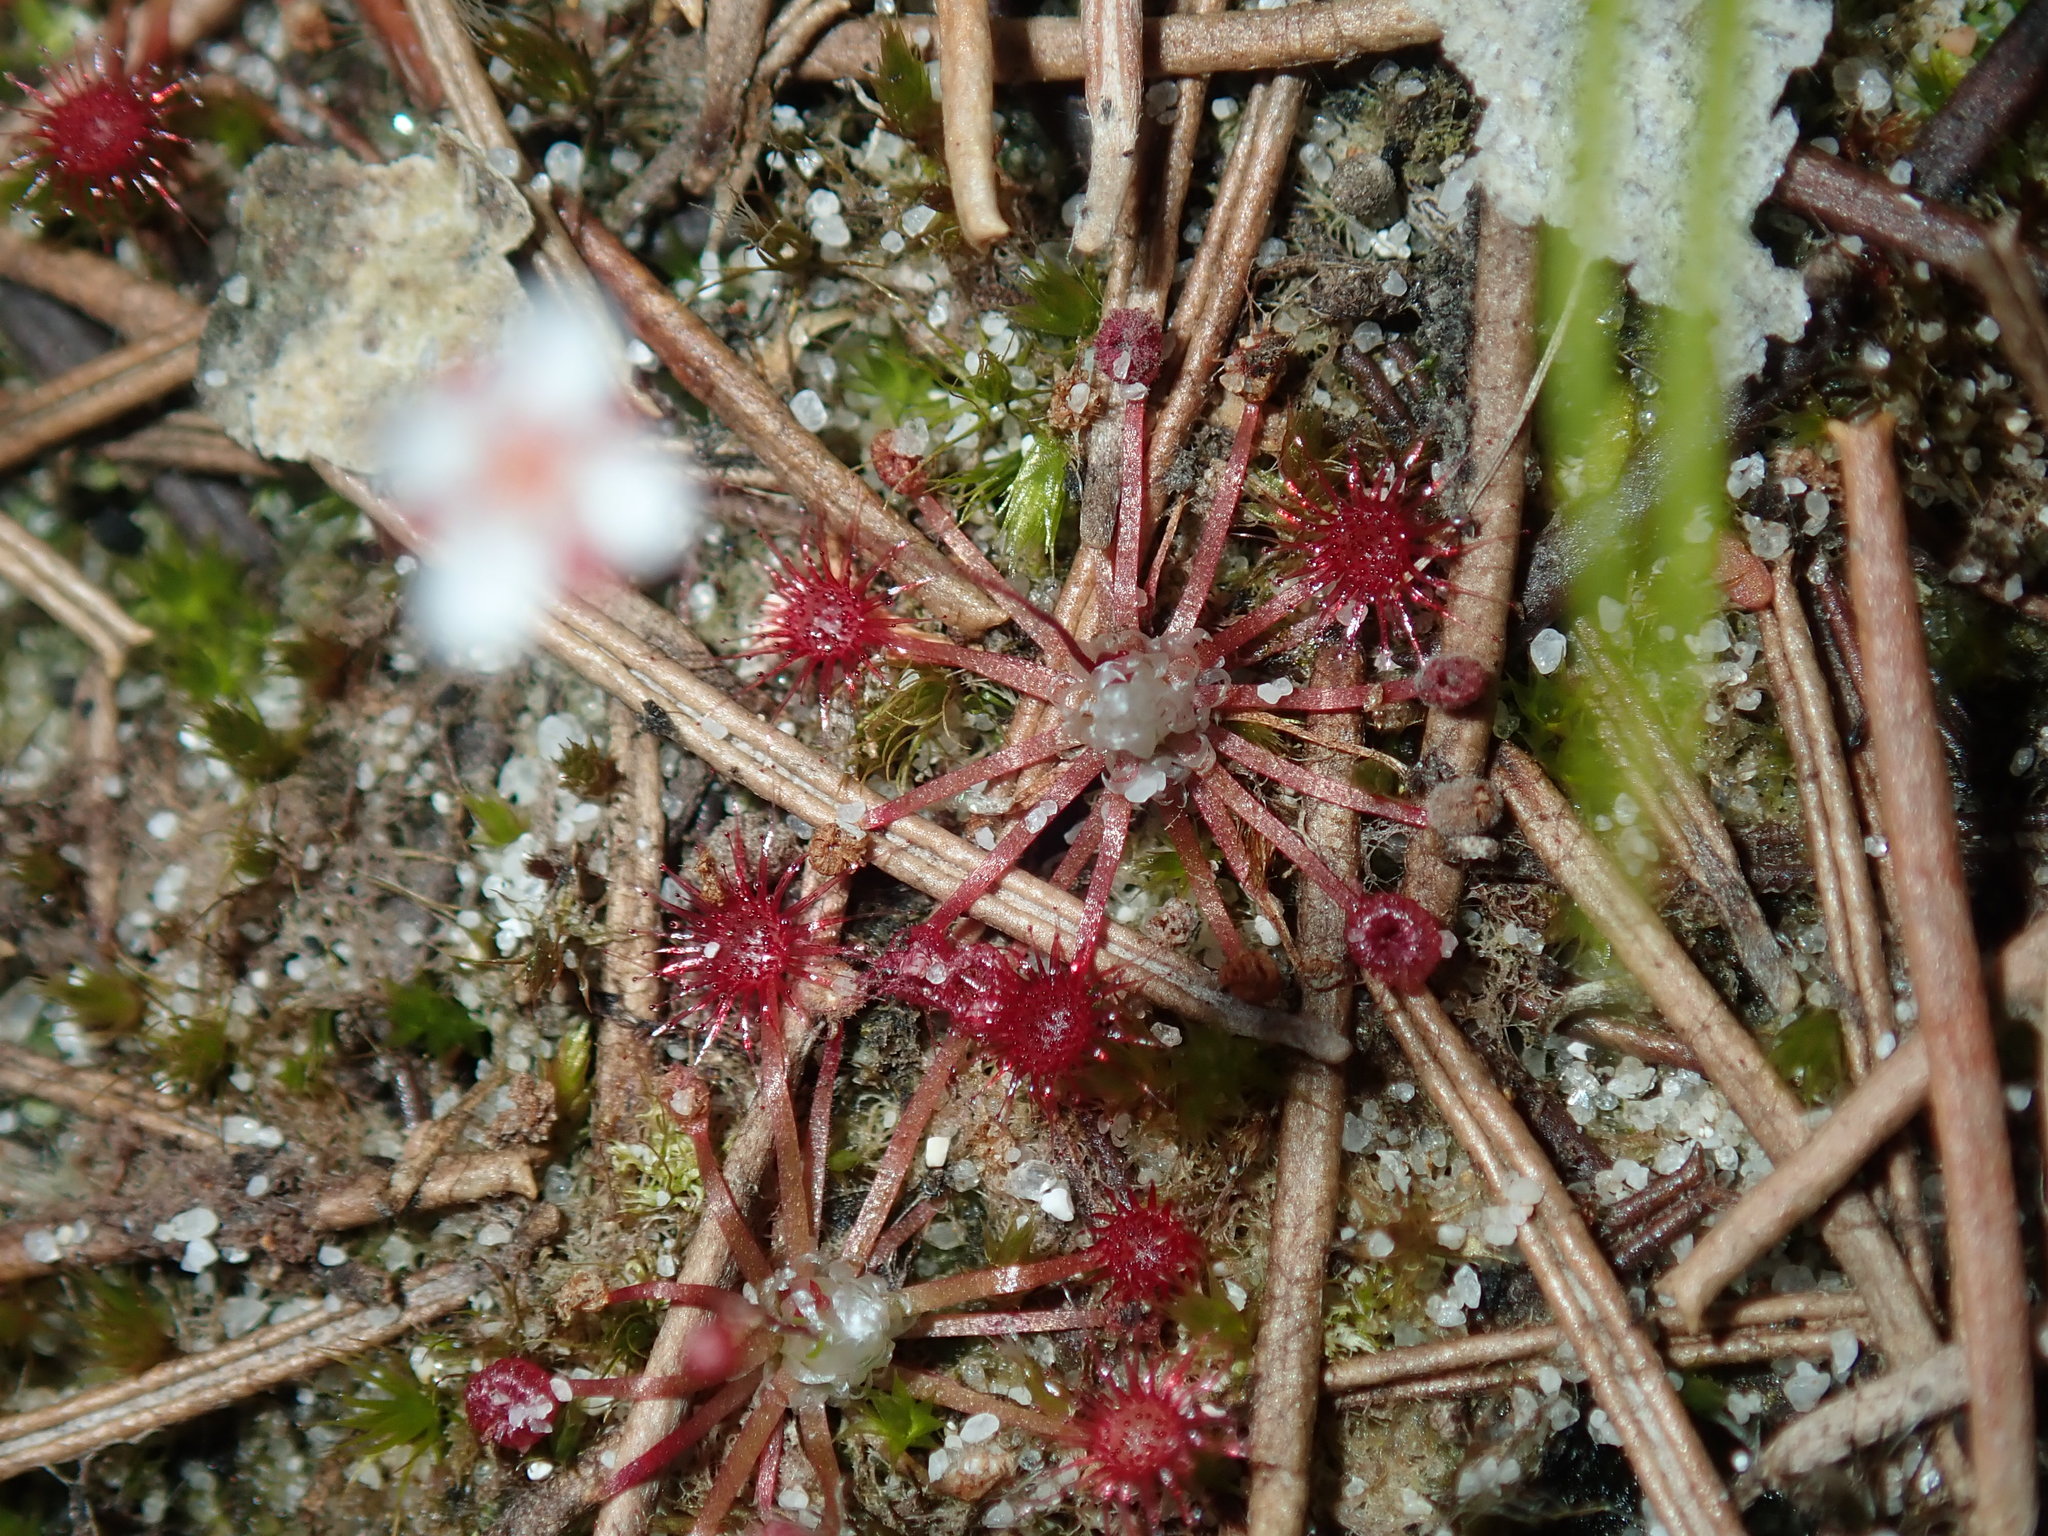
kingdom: Plantae
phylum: Tracheophyta
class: Magnoliopsida
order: Caryophyllales
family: Droseraceae
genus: Drosera
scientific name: Drosera pygmaea
